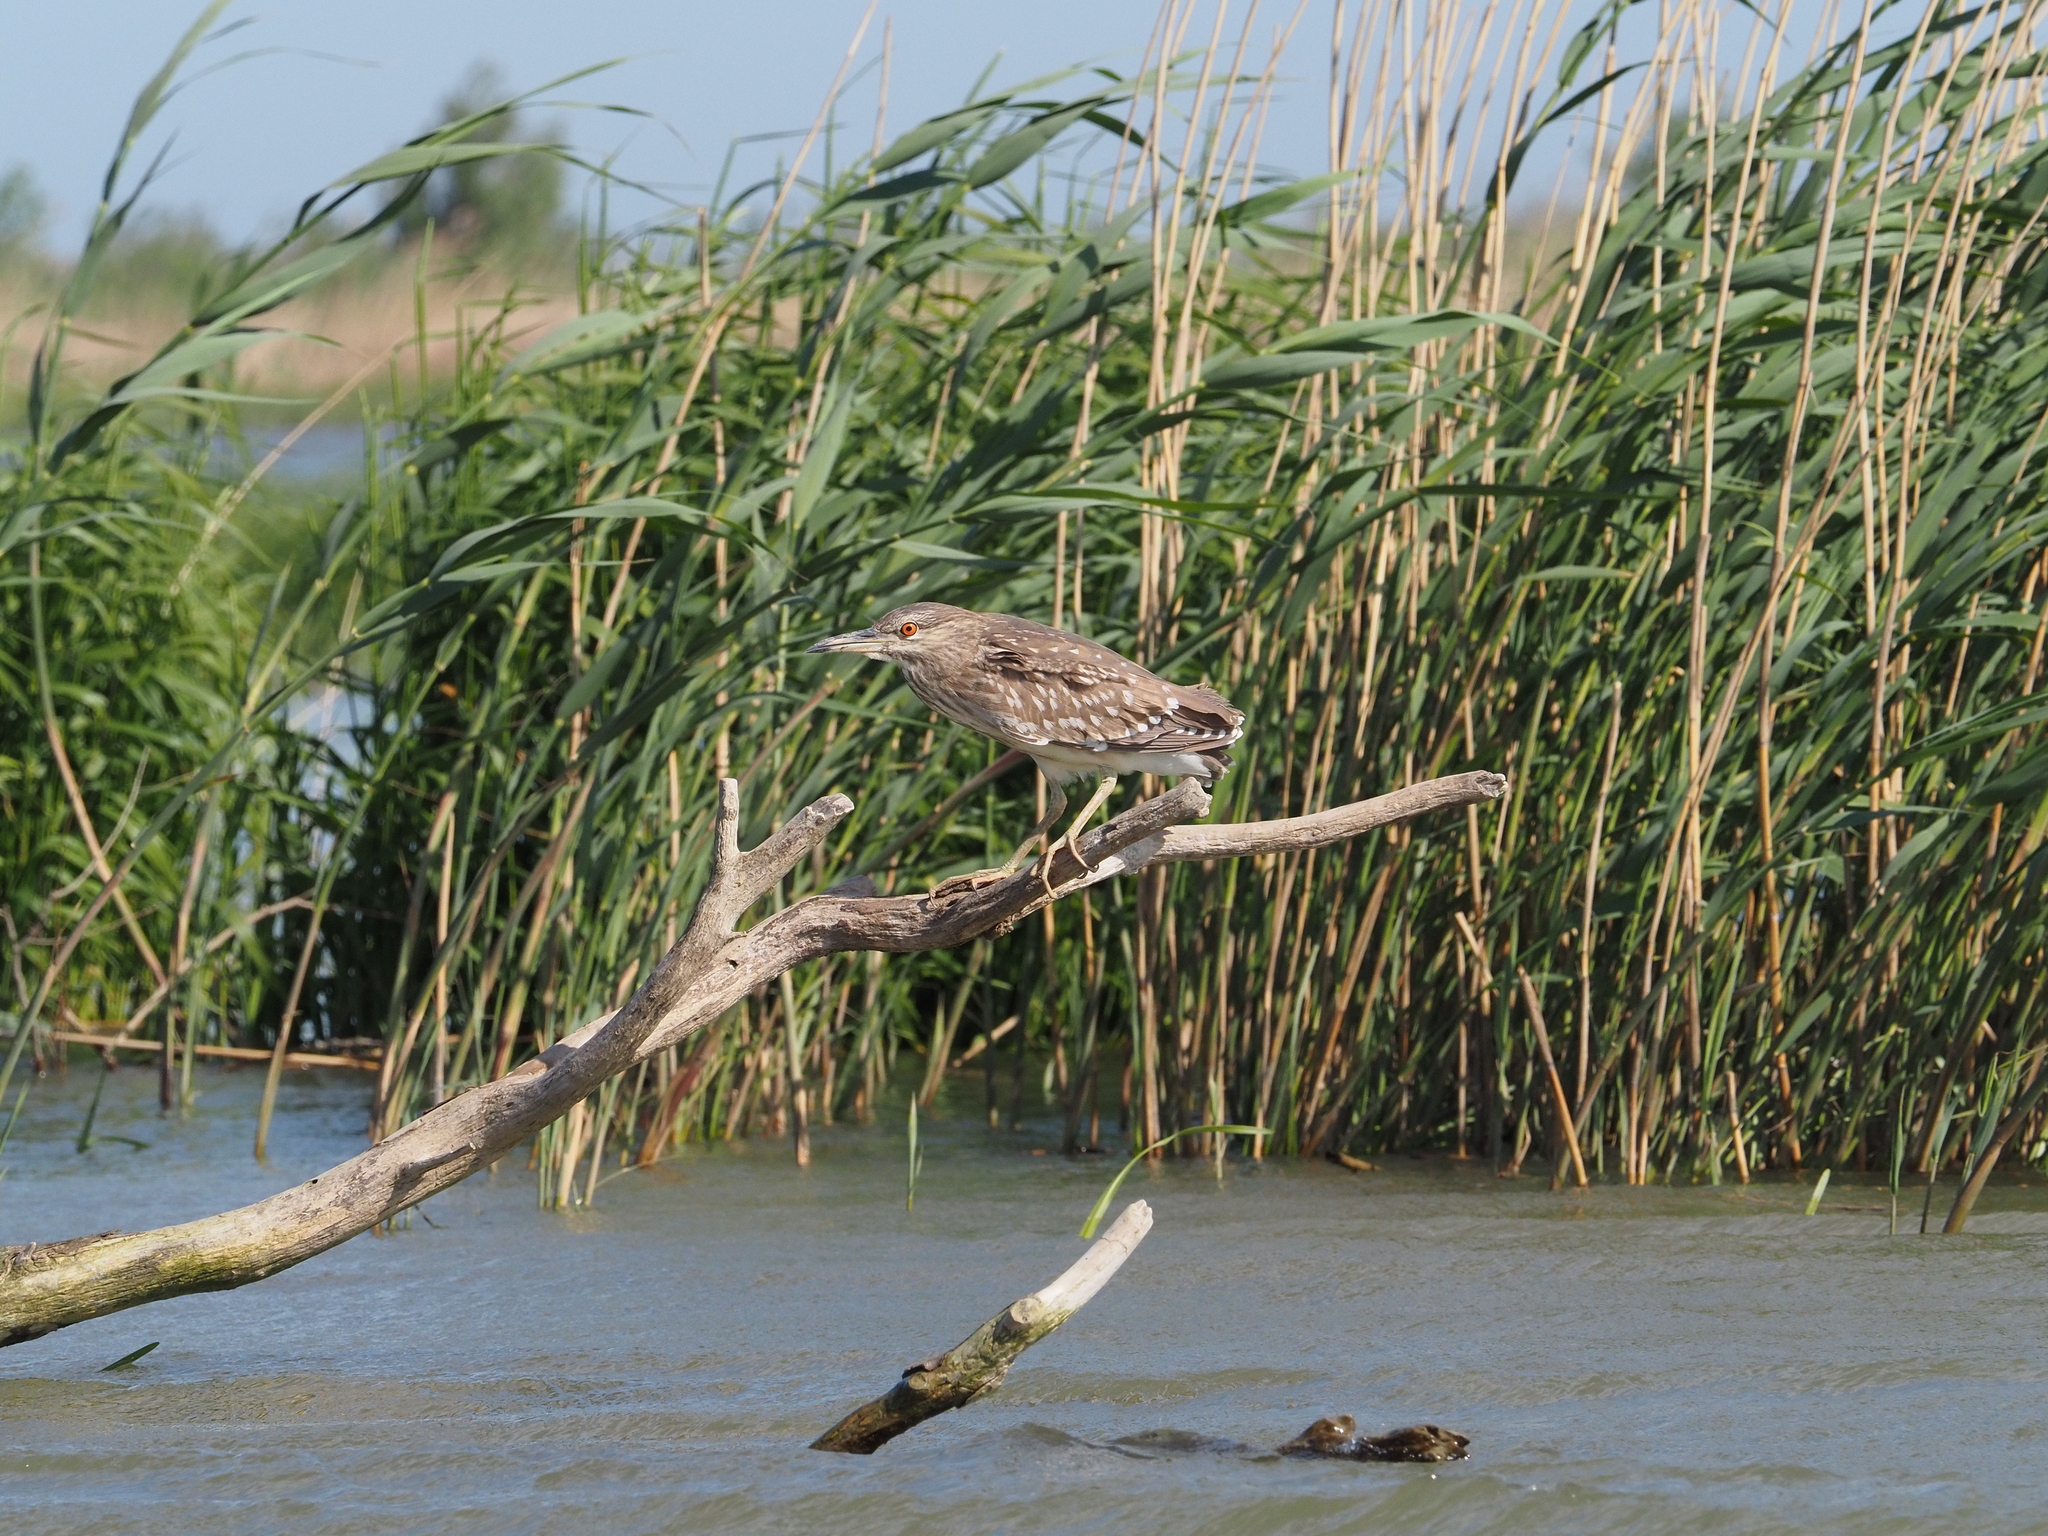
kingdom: Animalia
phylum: Chordata
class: Aves
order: Pelecaniformes
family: Ardeidae
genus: Nycticorax
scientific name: Nycticorax nycticorax
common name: Black-crowned night heron
